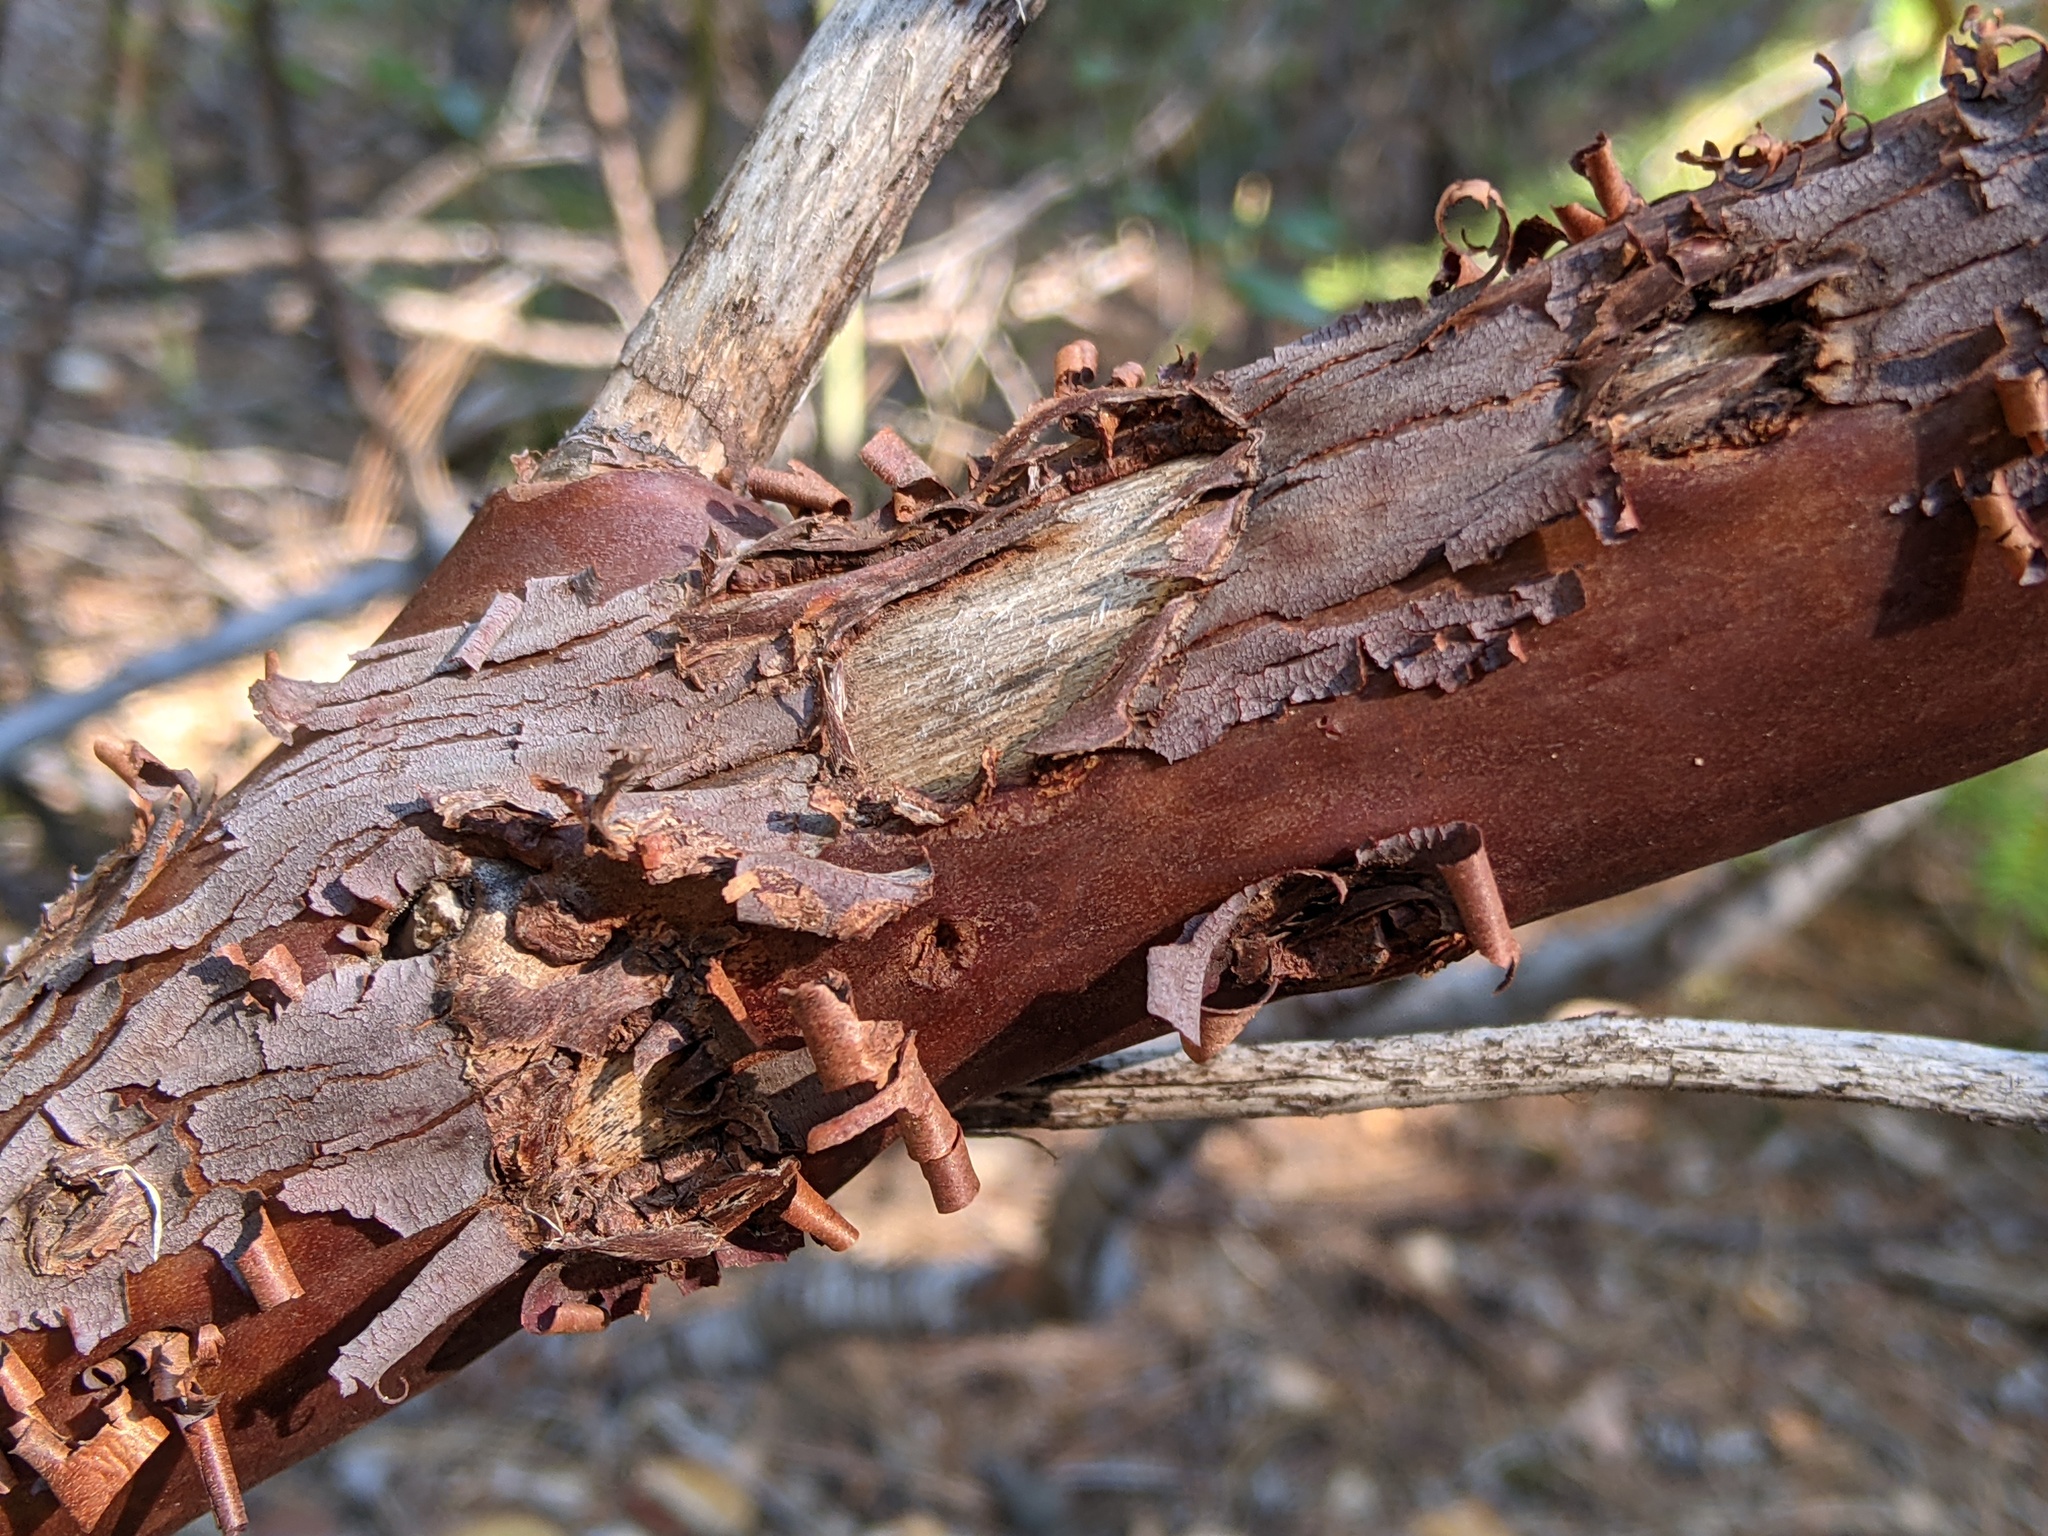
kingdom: Plantae
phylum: Tracheophyta
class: Magnoliopsida
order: Ericales
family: Ericaceae
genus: Arctostaphylos
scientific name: Arctostaphylos patula
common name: Green-leaf manzanita
